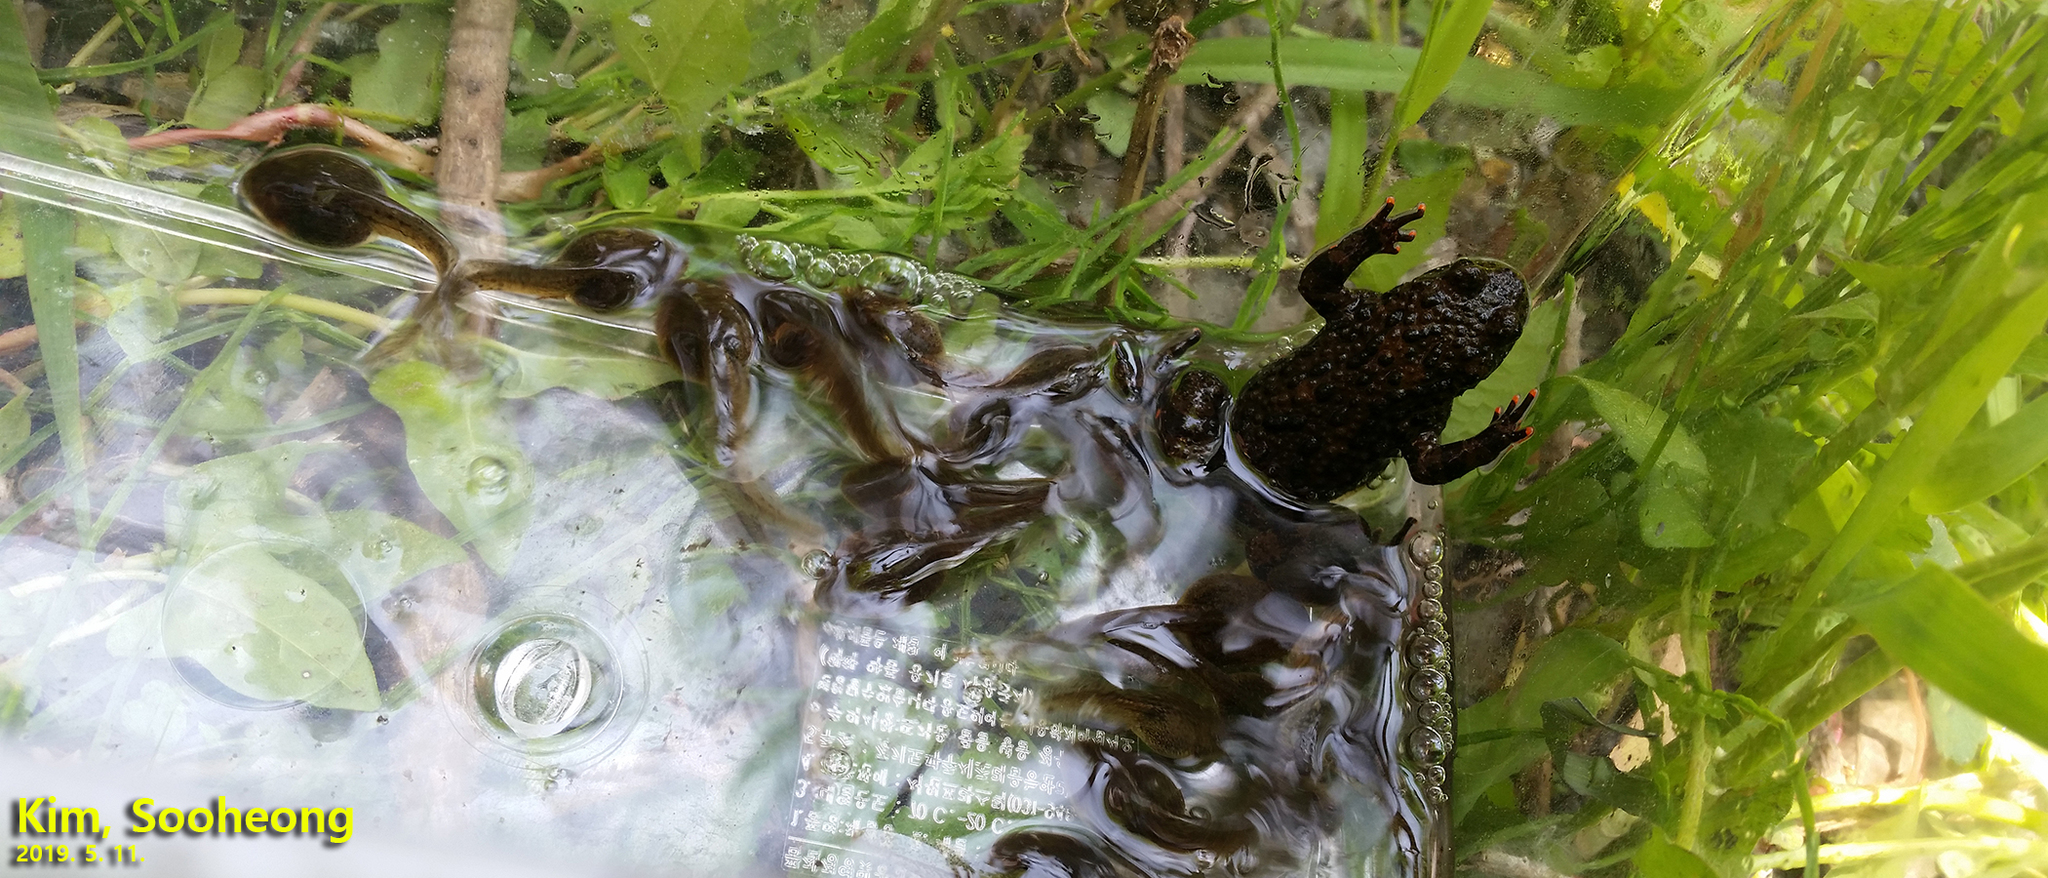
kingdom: Animalia
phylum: Chordata
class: Amphibia
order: Anura
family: Bombinatoridae
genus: Bombina
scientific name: Bombina orientalis
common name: Oriental firebelly toad
